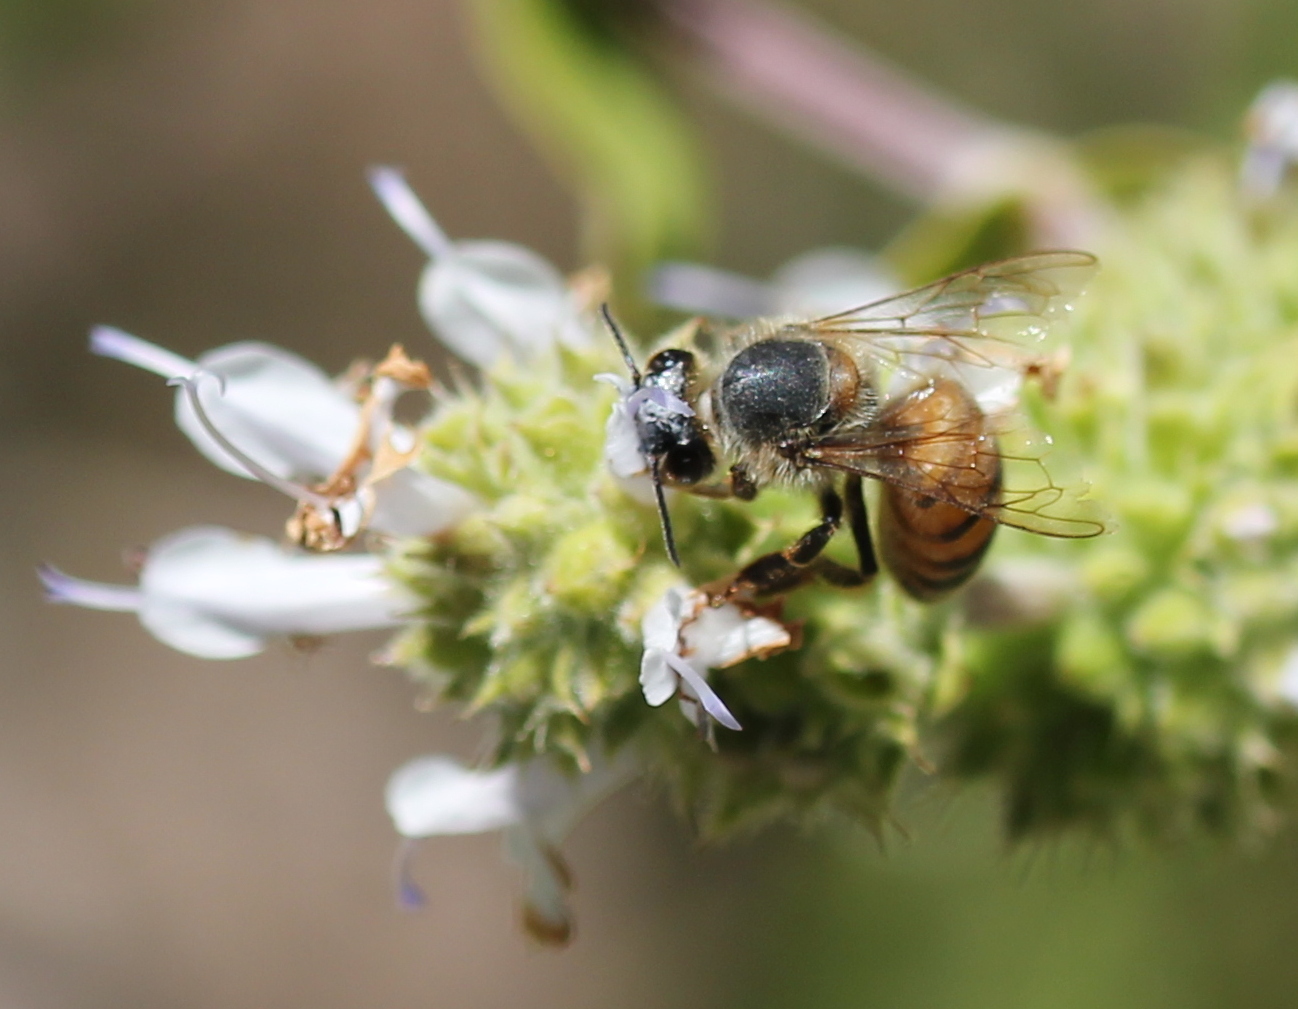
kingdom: Animalia
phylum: Arthropoda
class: Insecta
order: Hymenoptera
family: Apidae
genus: Apis
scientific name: Apis mellifera
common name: Honey bee
